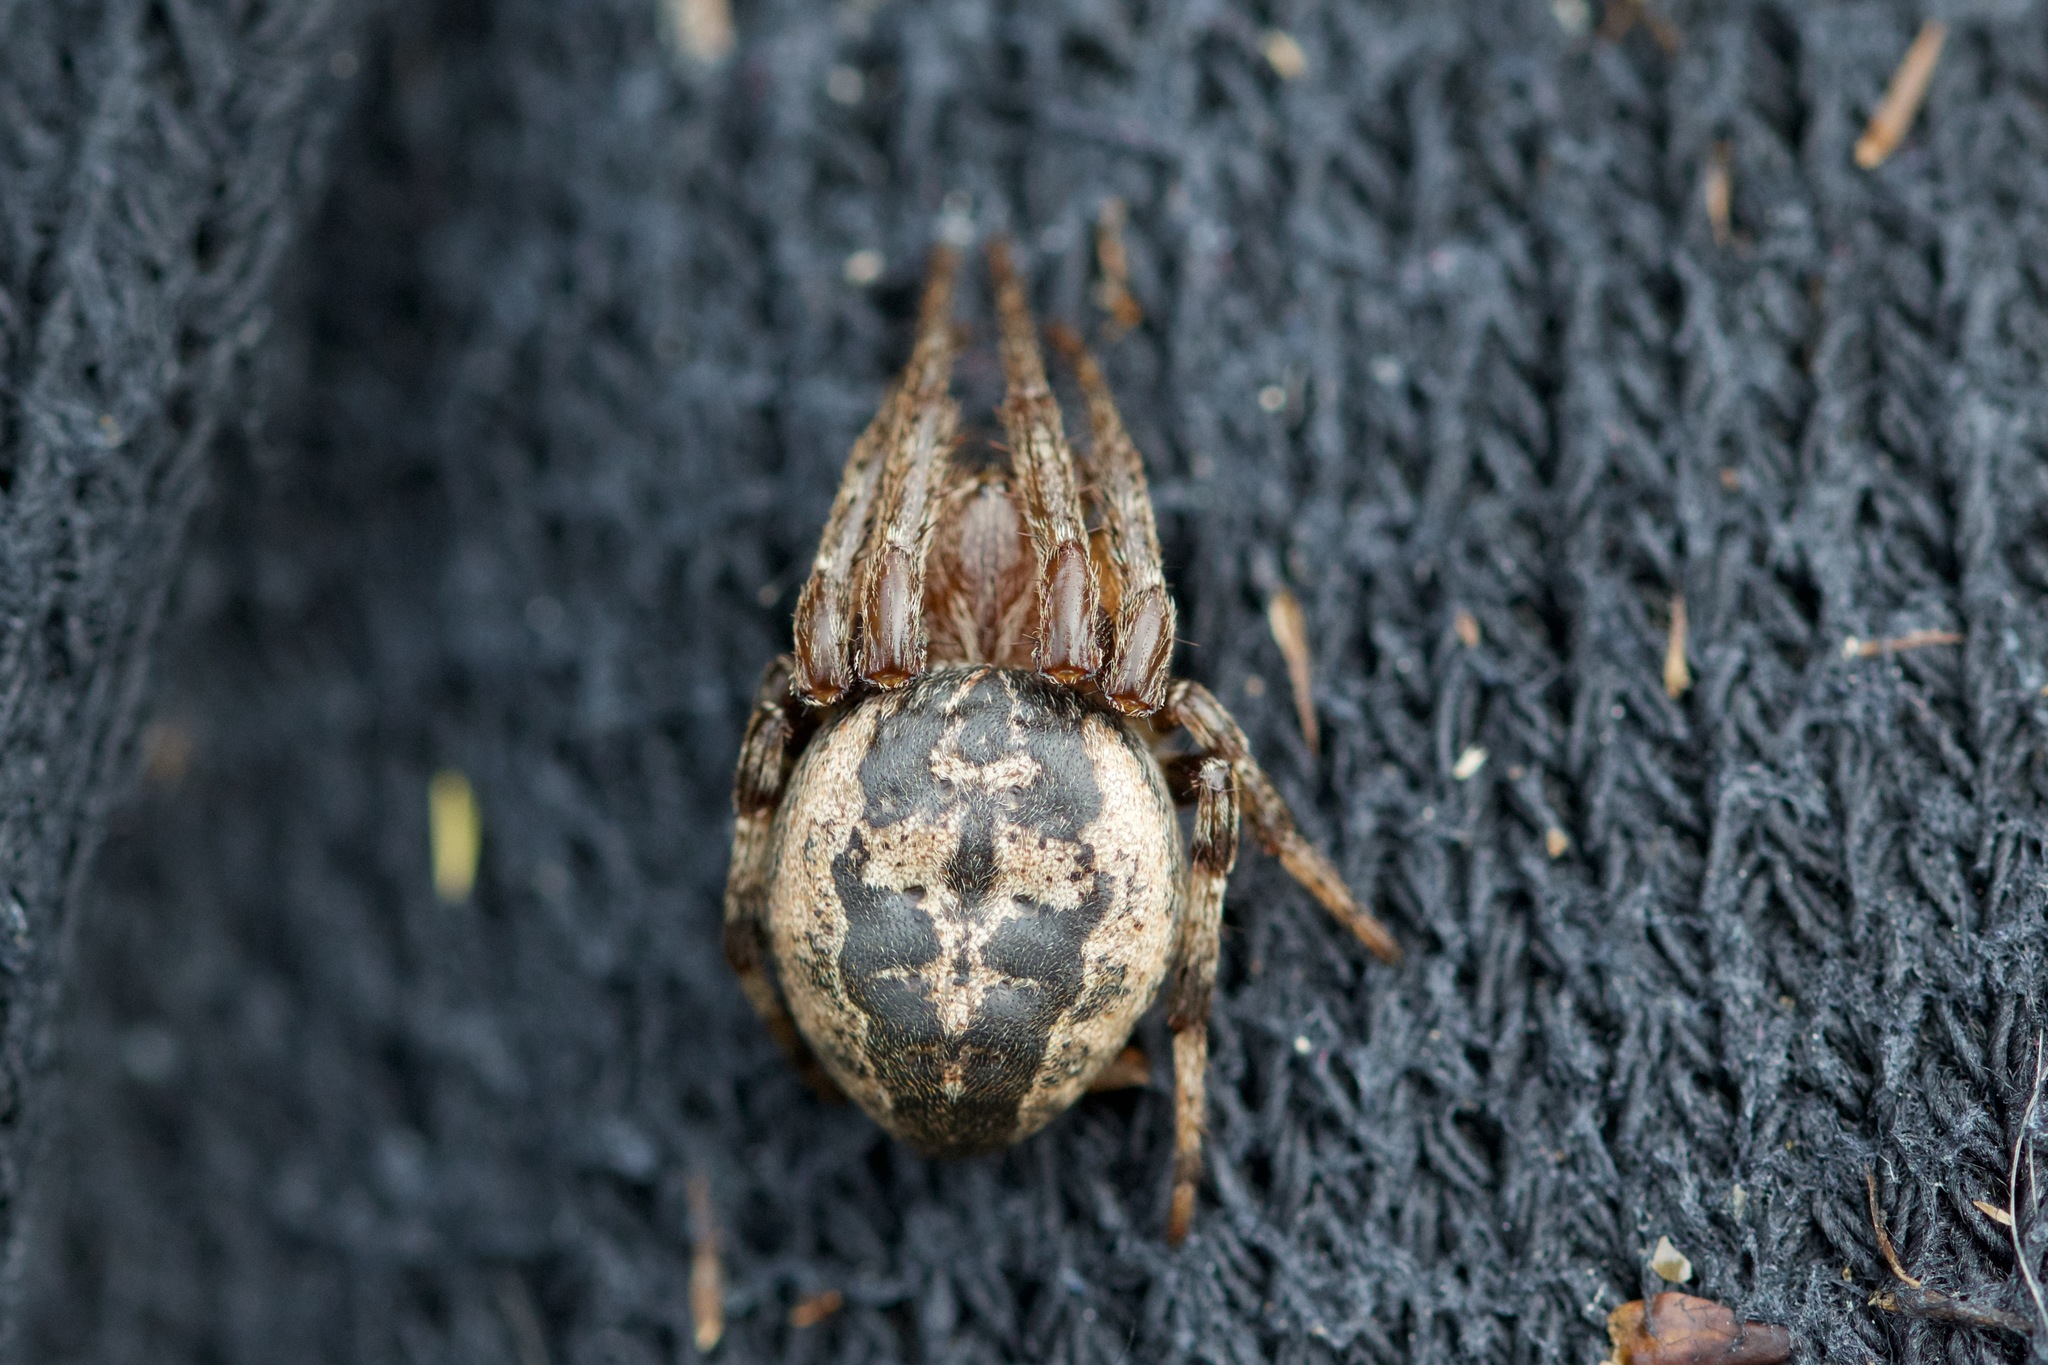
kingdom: Animalia
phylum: Arthropoda
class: Arachnida
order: Araneae
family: Araneidae
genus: Larinioides
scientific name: Larinioides cornutus
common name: Furrow orbweaver
